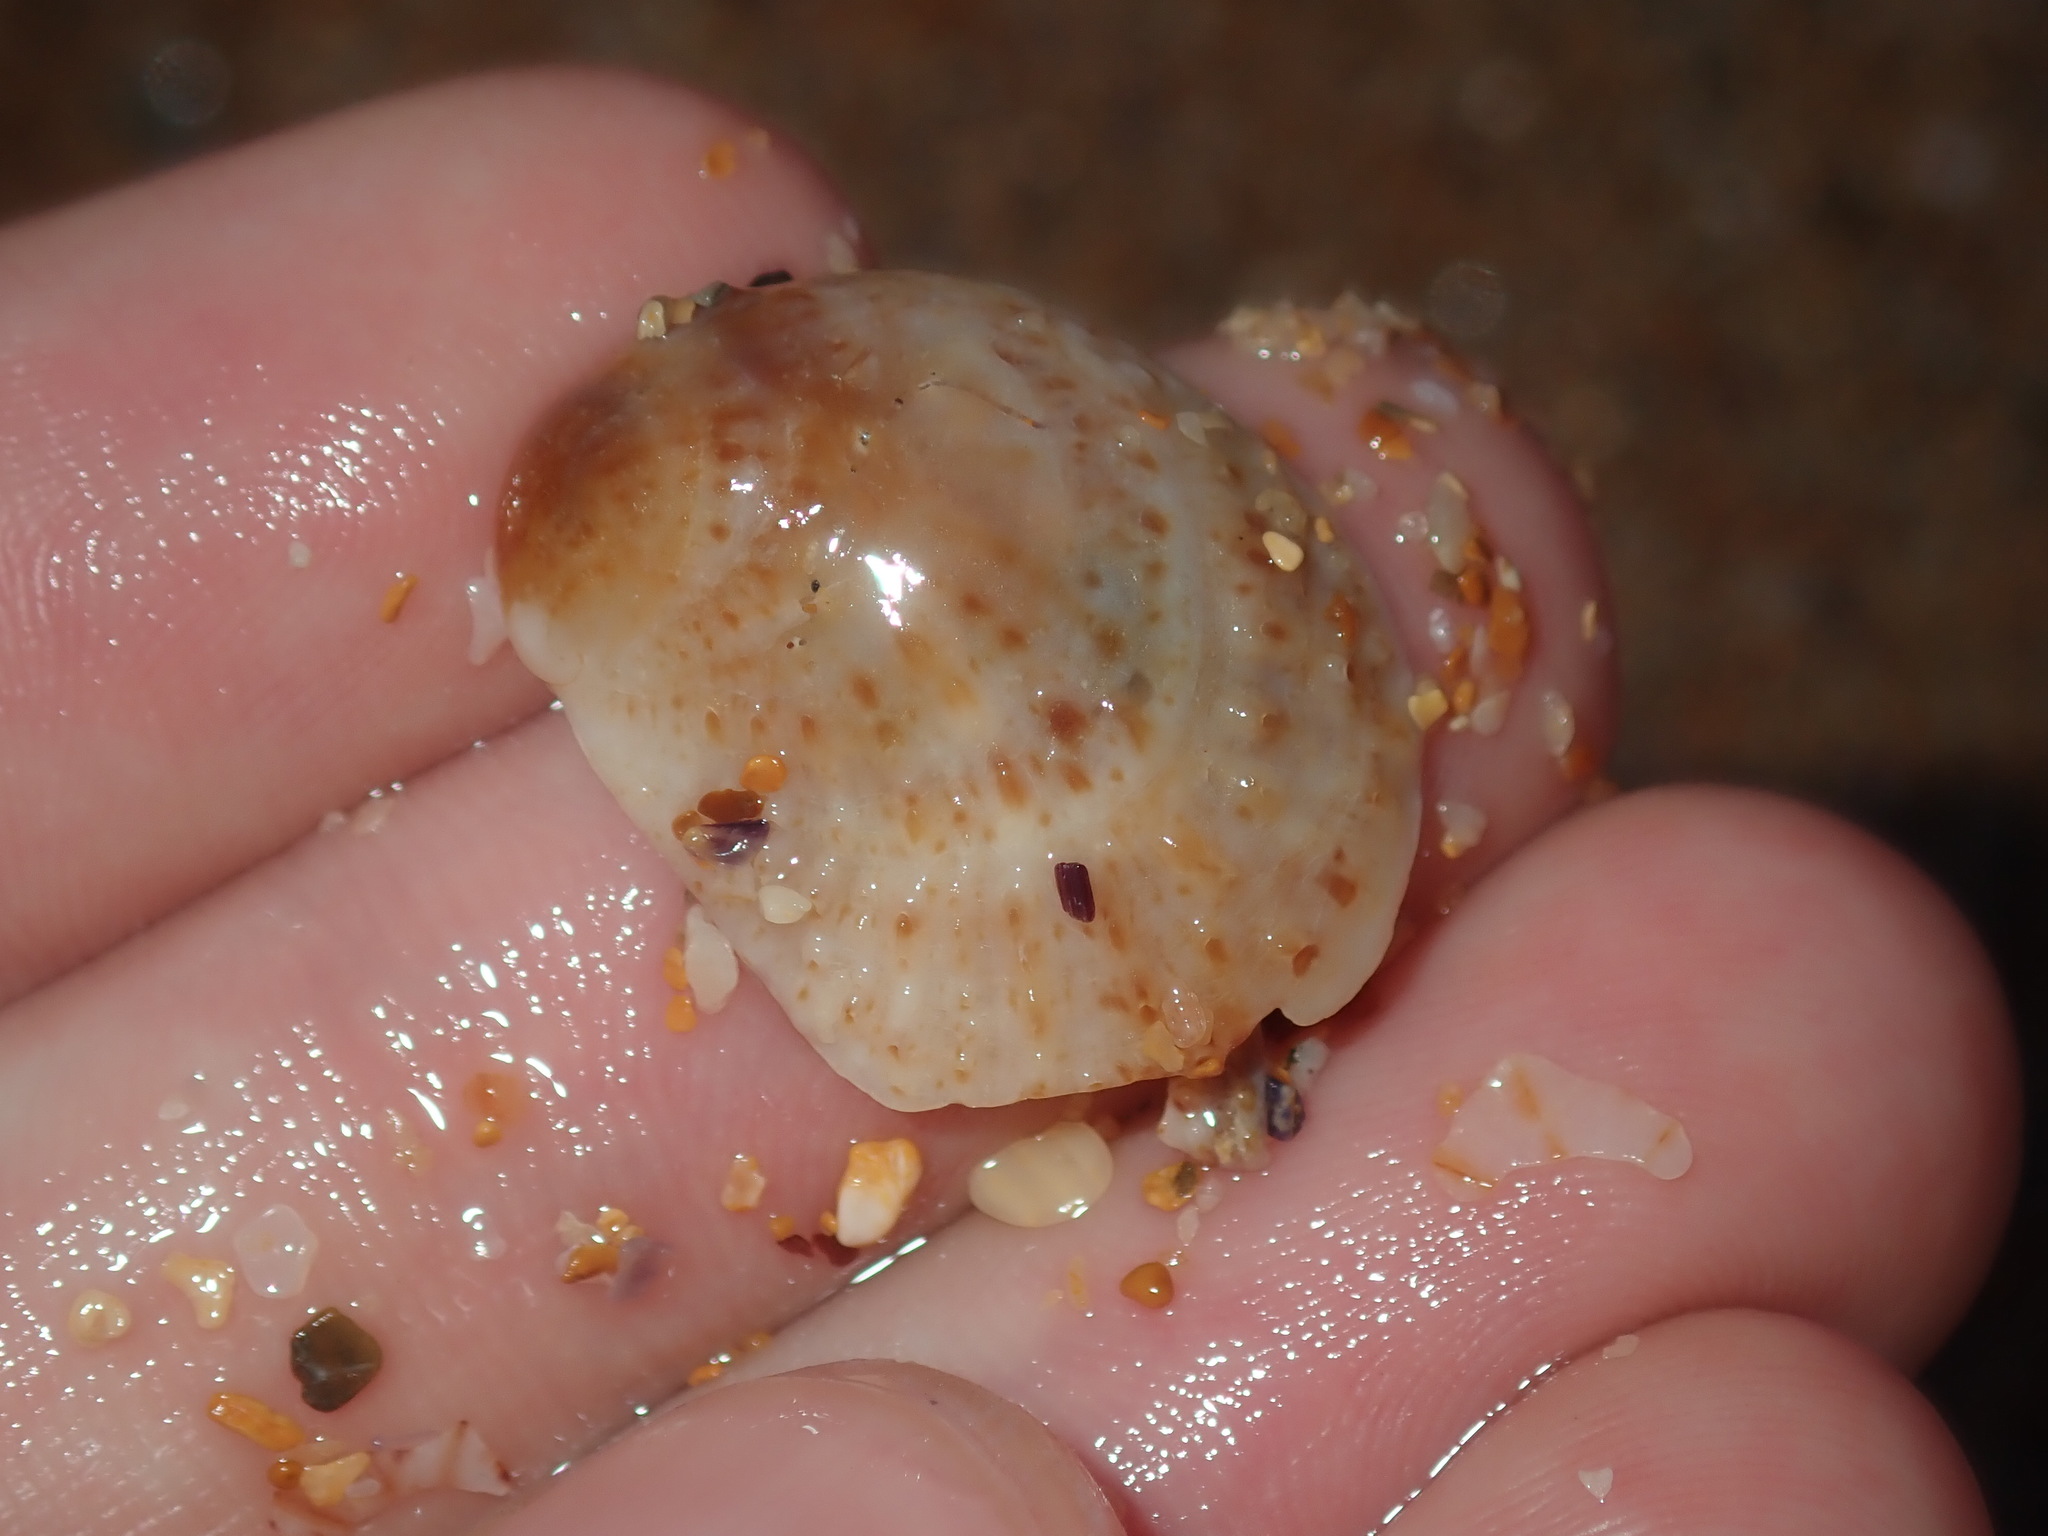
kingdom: Animalia
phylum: Mollusca
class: Gastropoda
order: Littorinimorpha
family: Calyptraeidae
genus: Bostrycapulus
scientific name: Bostrycapulus pritzkeri
